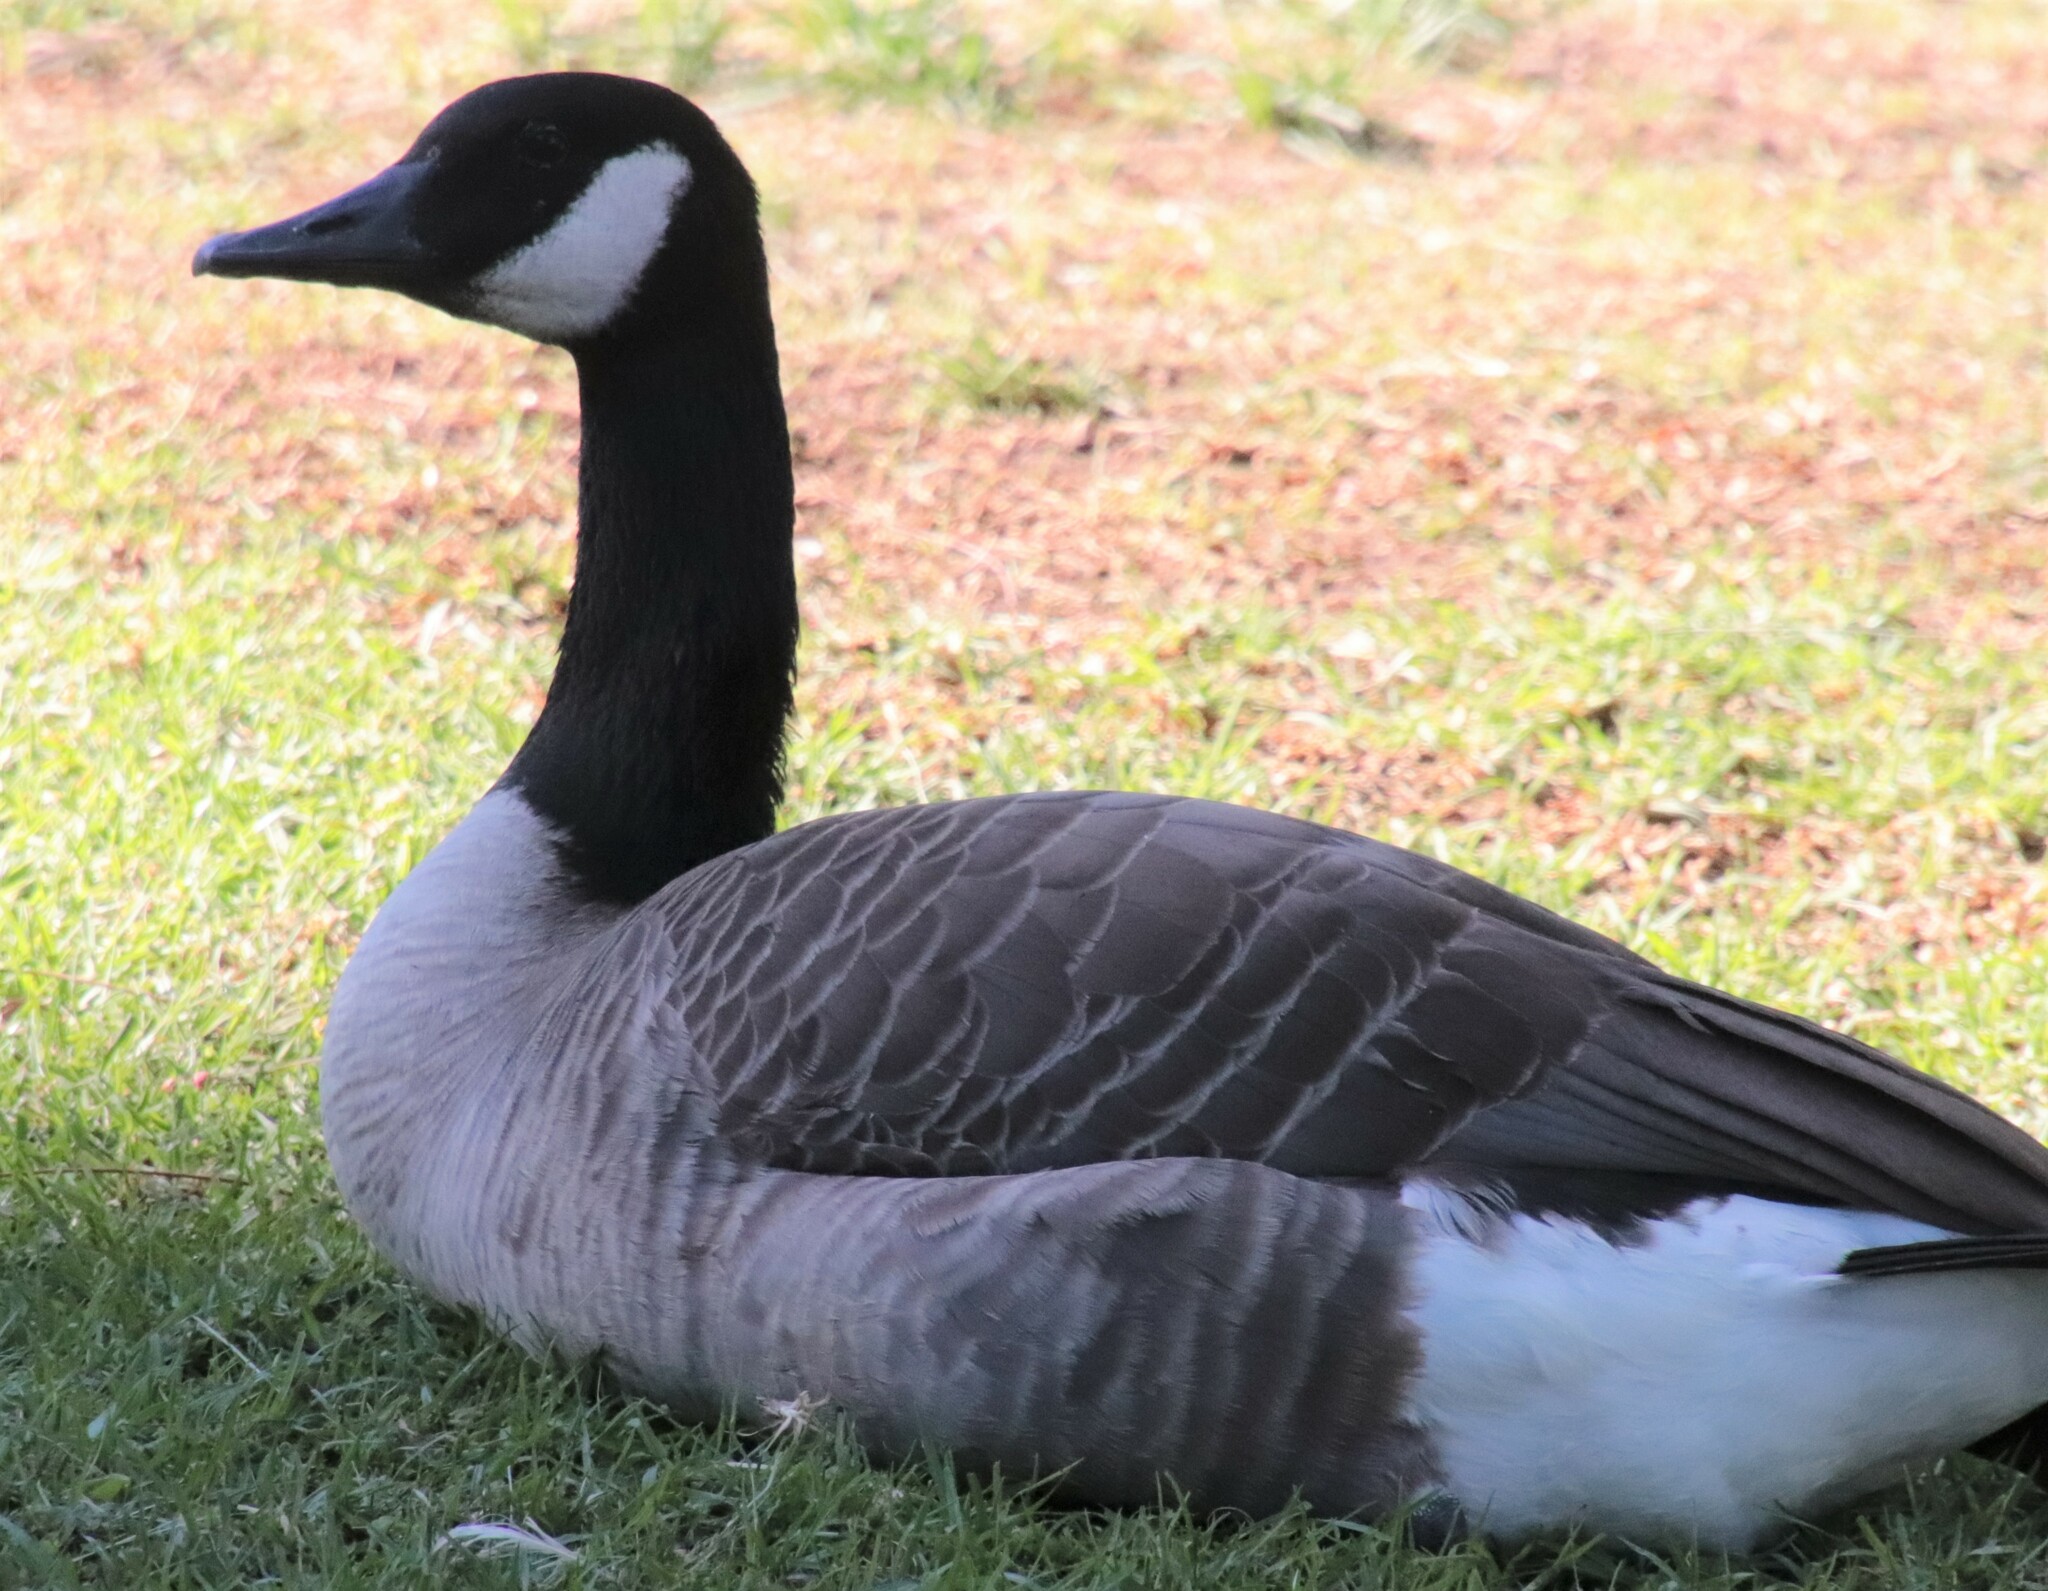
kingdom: Animalia
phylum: Chordata
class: Aves
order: Anseriformes
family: Anatidae
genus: Branta
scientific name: Branta canadensis
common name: Canada goose
